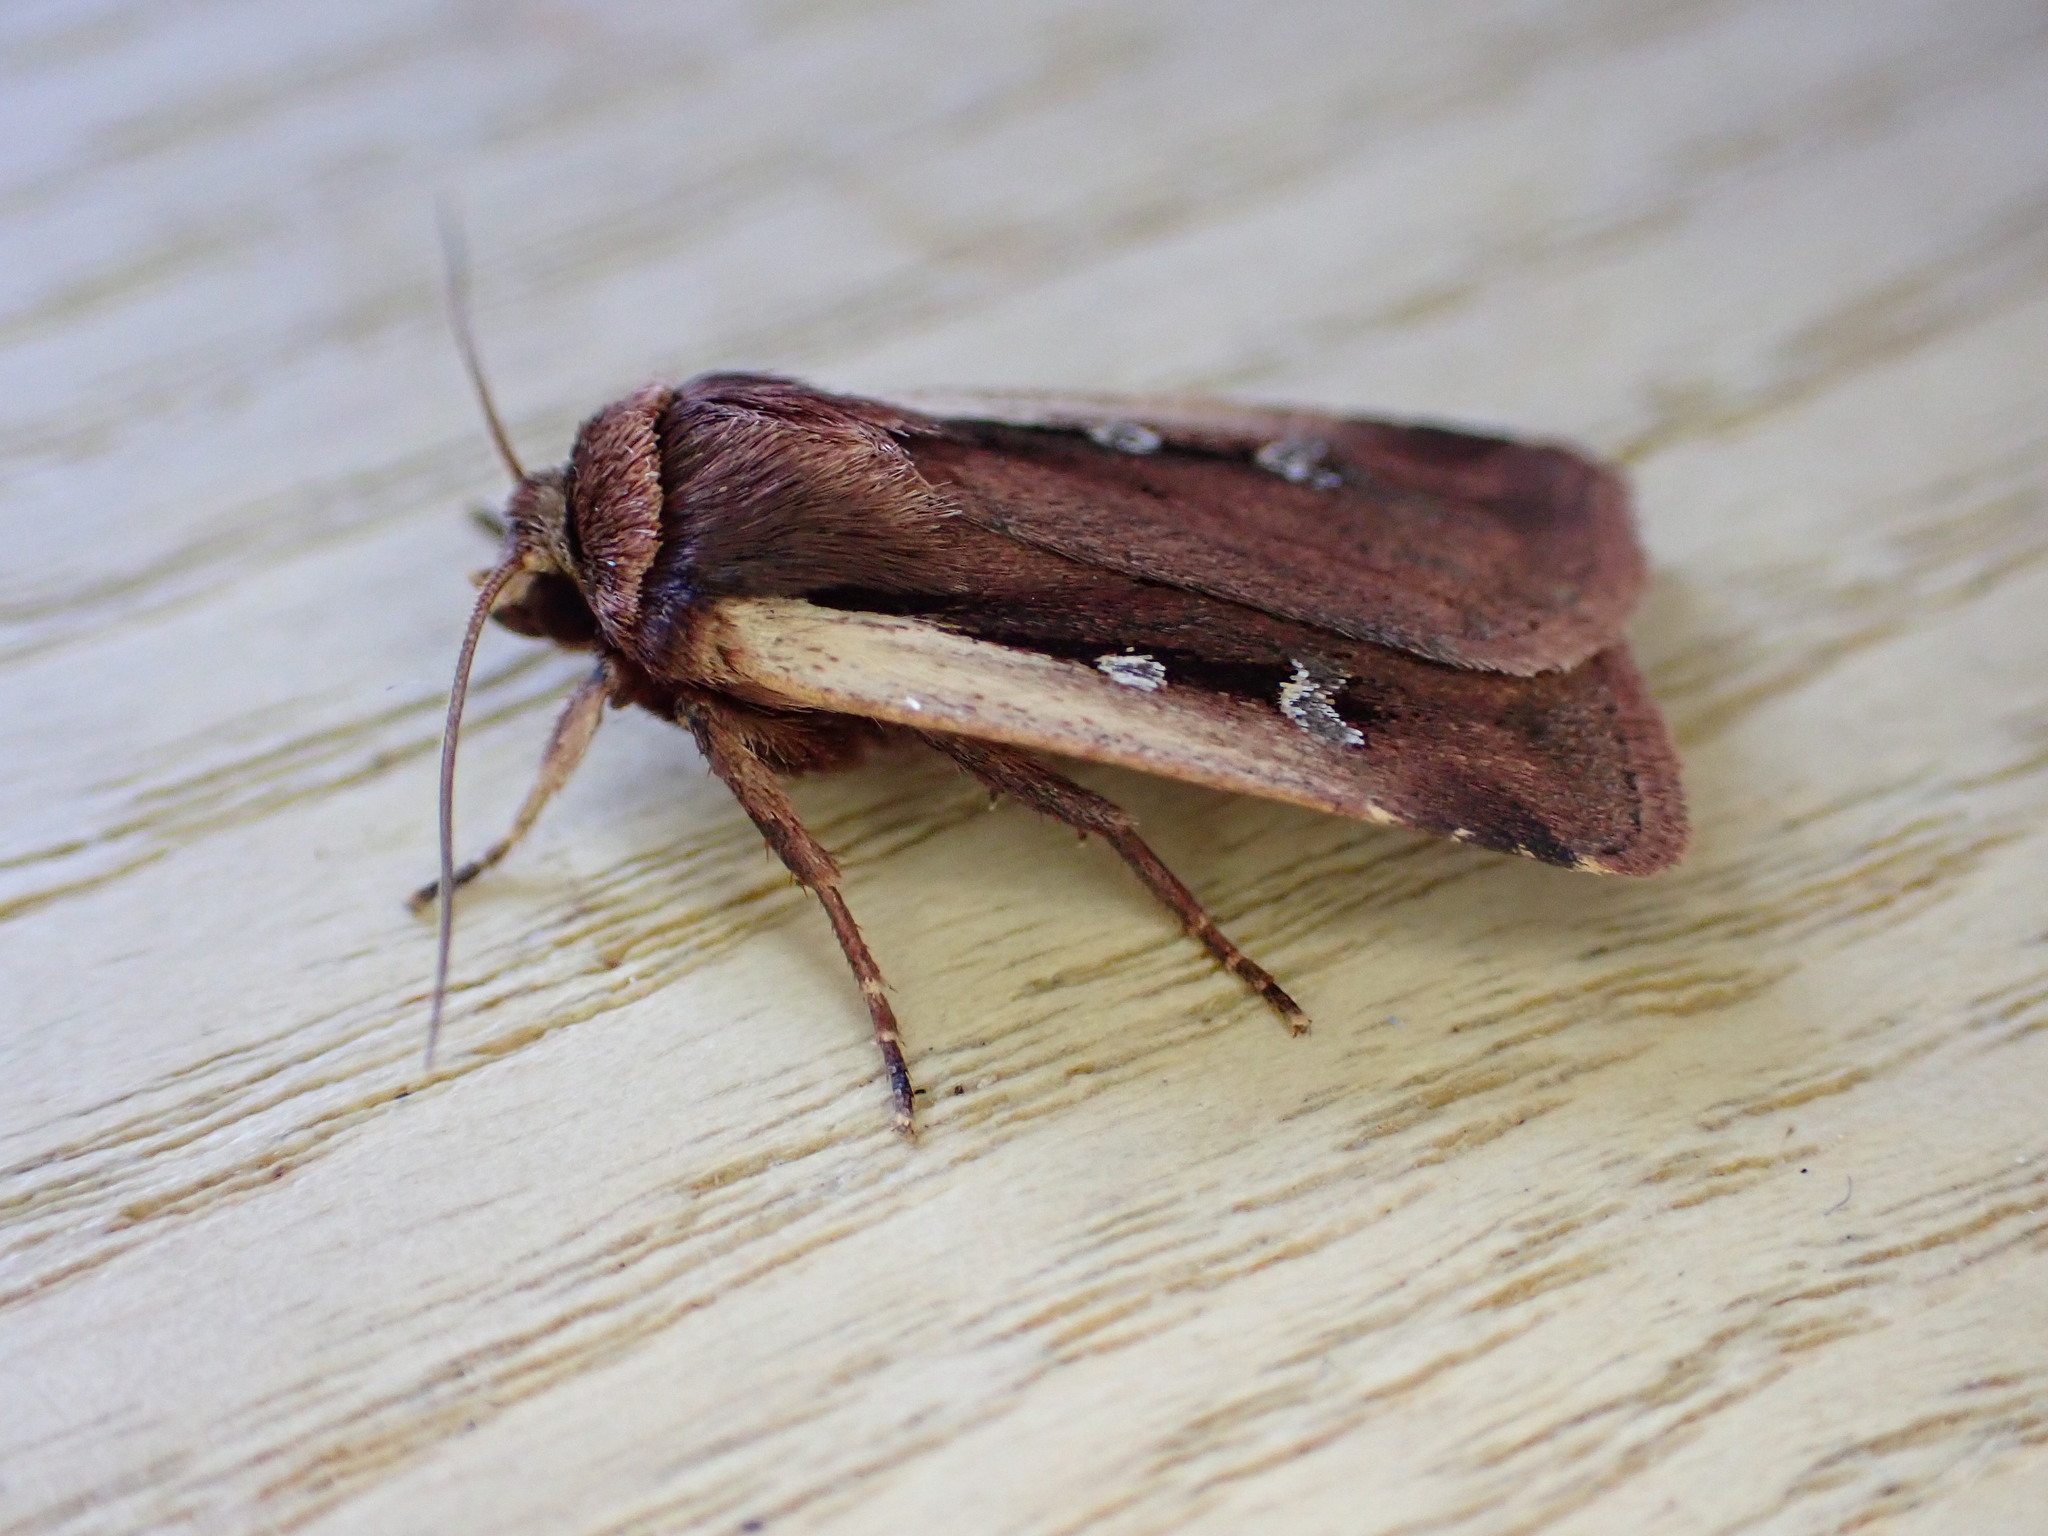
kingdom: Animalia
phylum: Arthropoda
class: Insecta
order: Lepidoptera
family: Noctuidae
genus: Ochropleura
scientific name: Ochropleura plecta
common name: Flame shoulder
